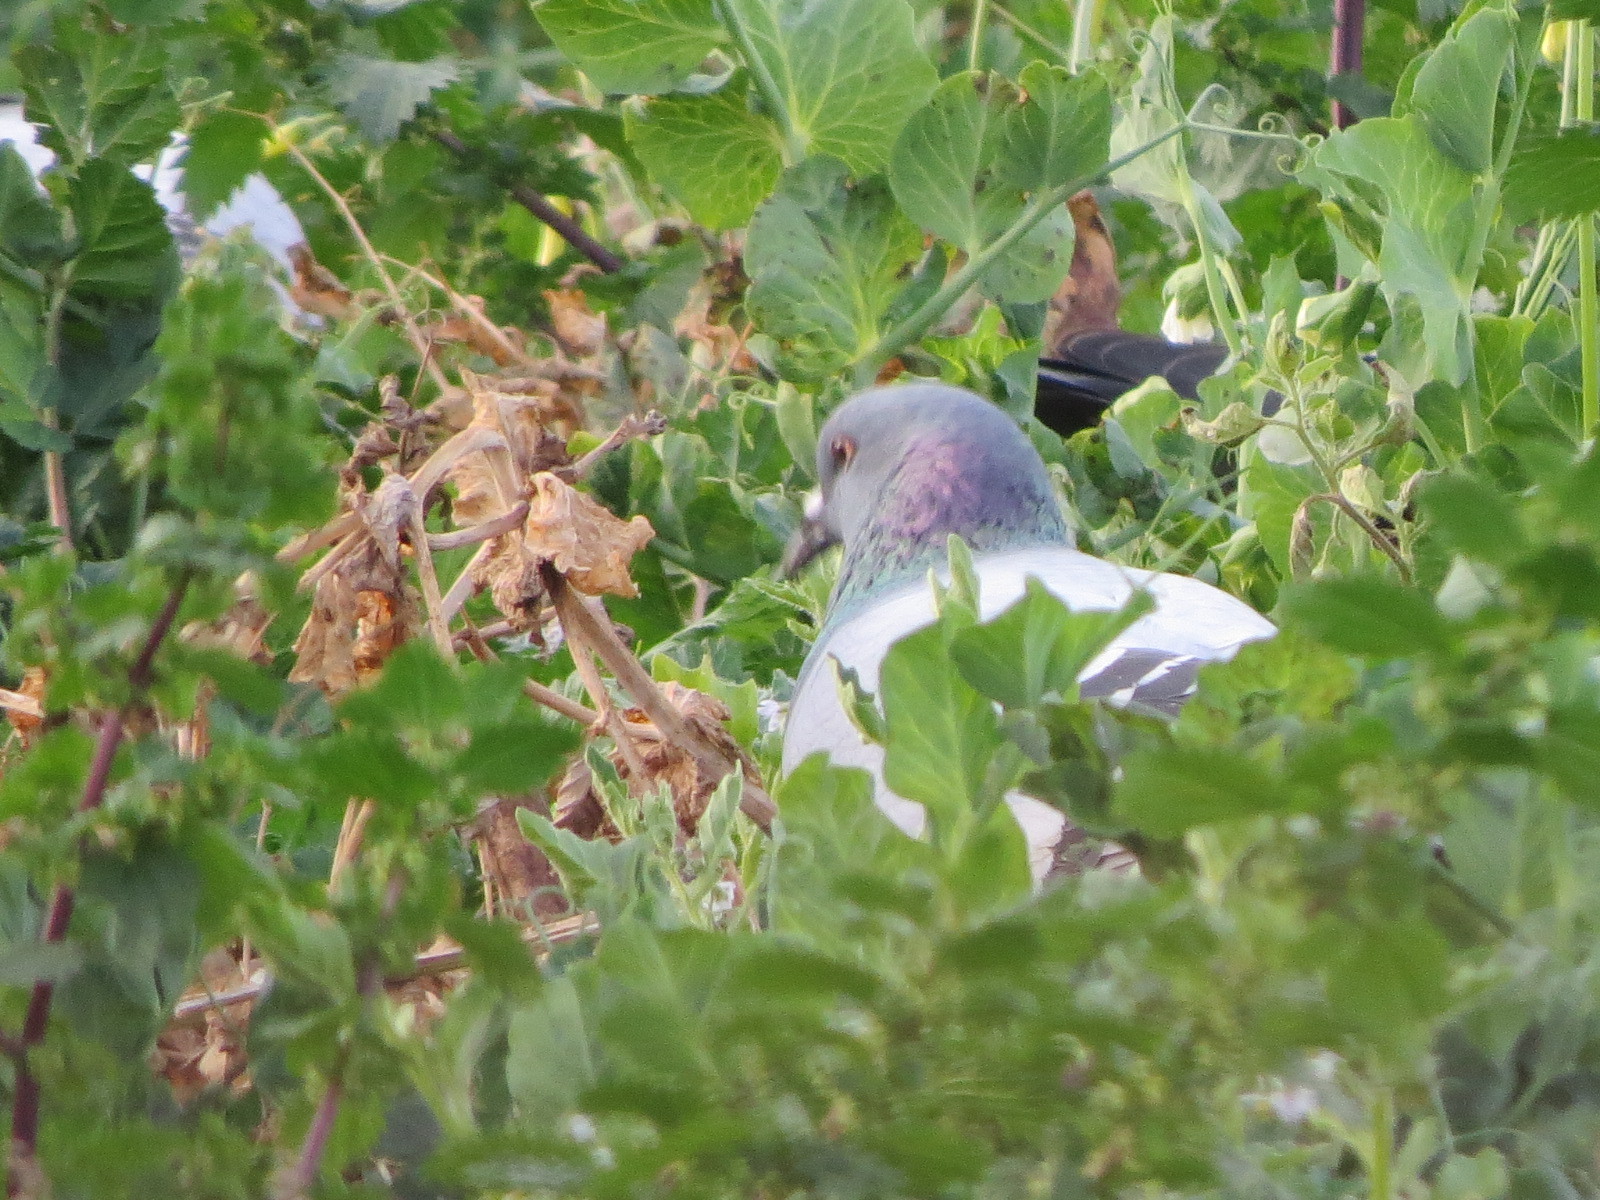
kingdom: Animalia
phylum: Chordata
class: Aves
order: Columbiformes
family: Columbidae
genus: Columba
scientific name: Columba livia
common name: Rock pigeon
